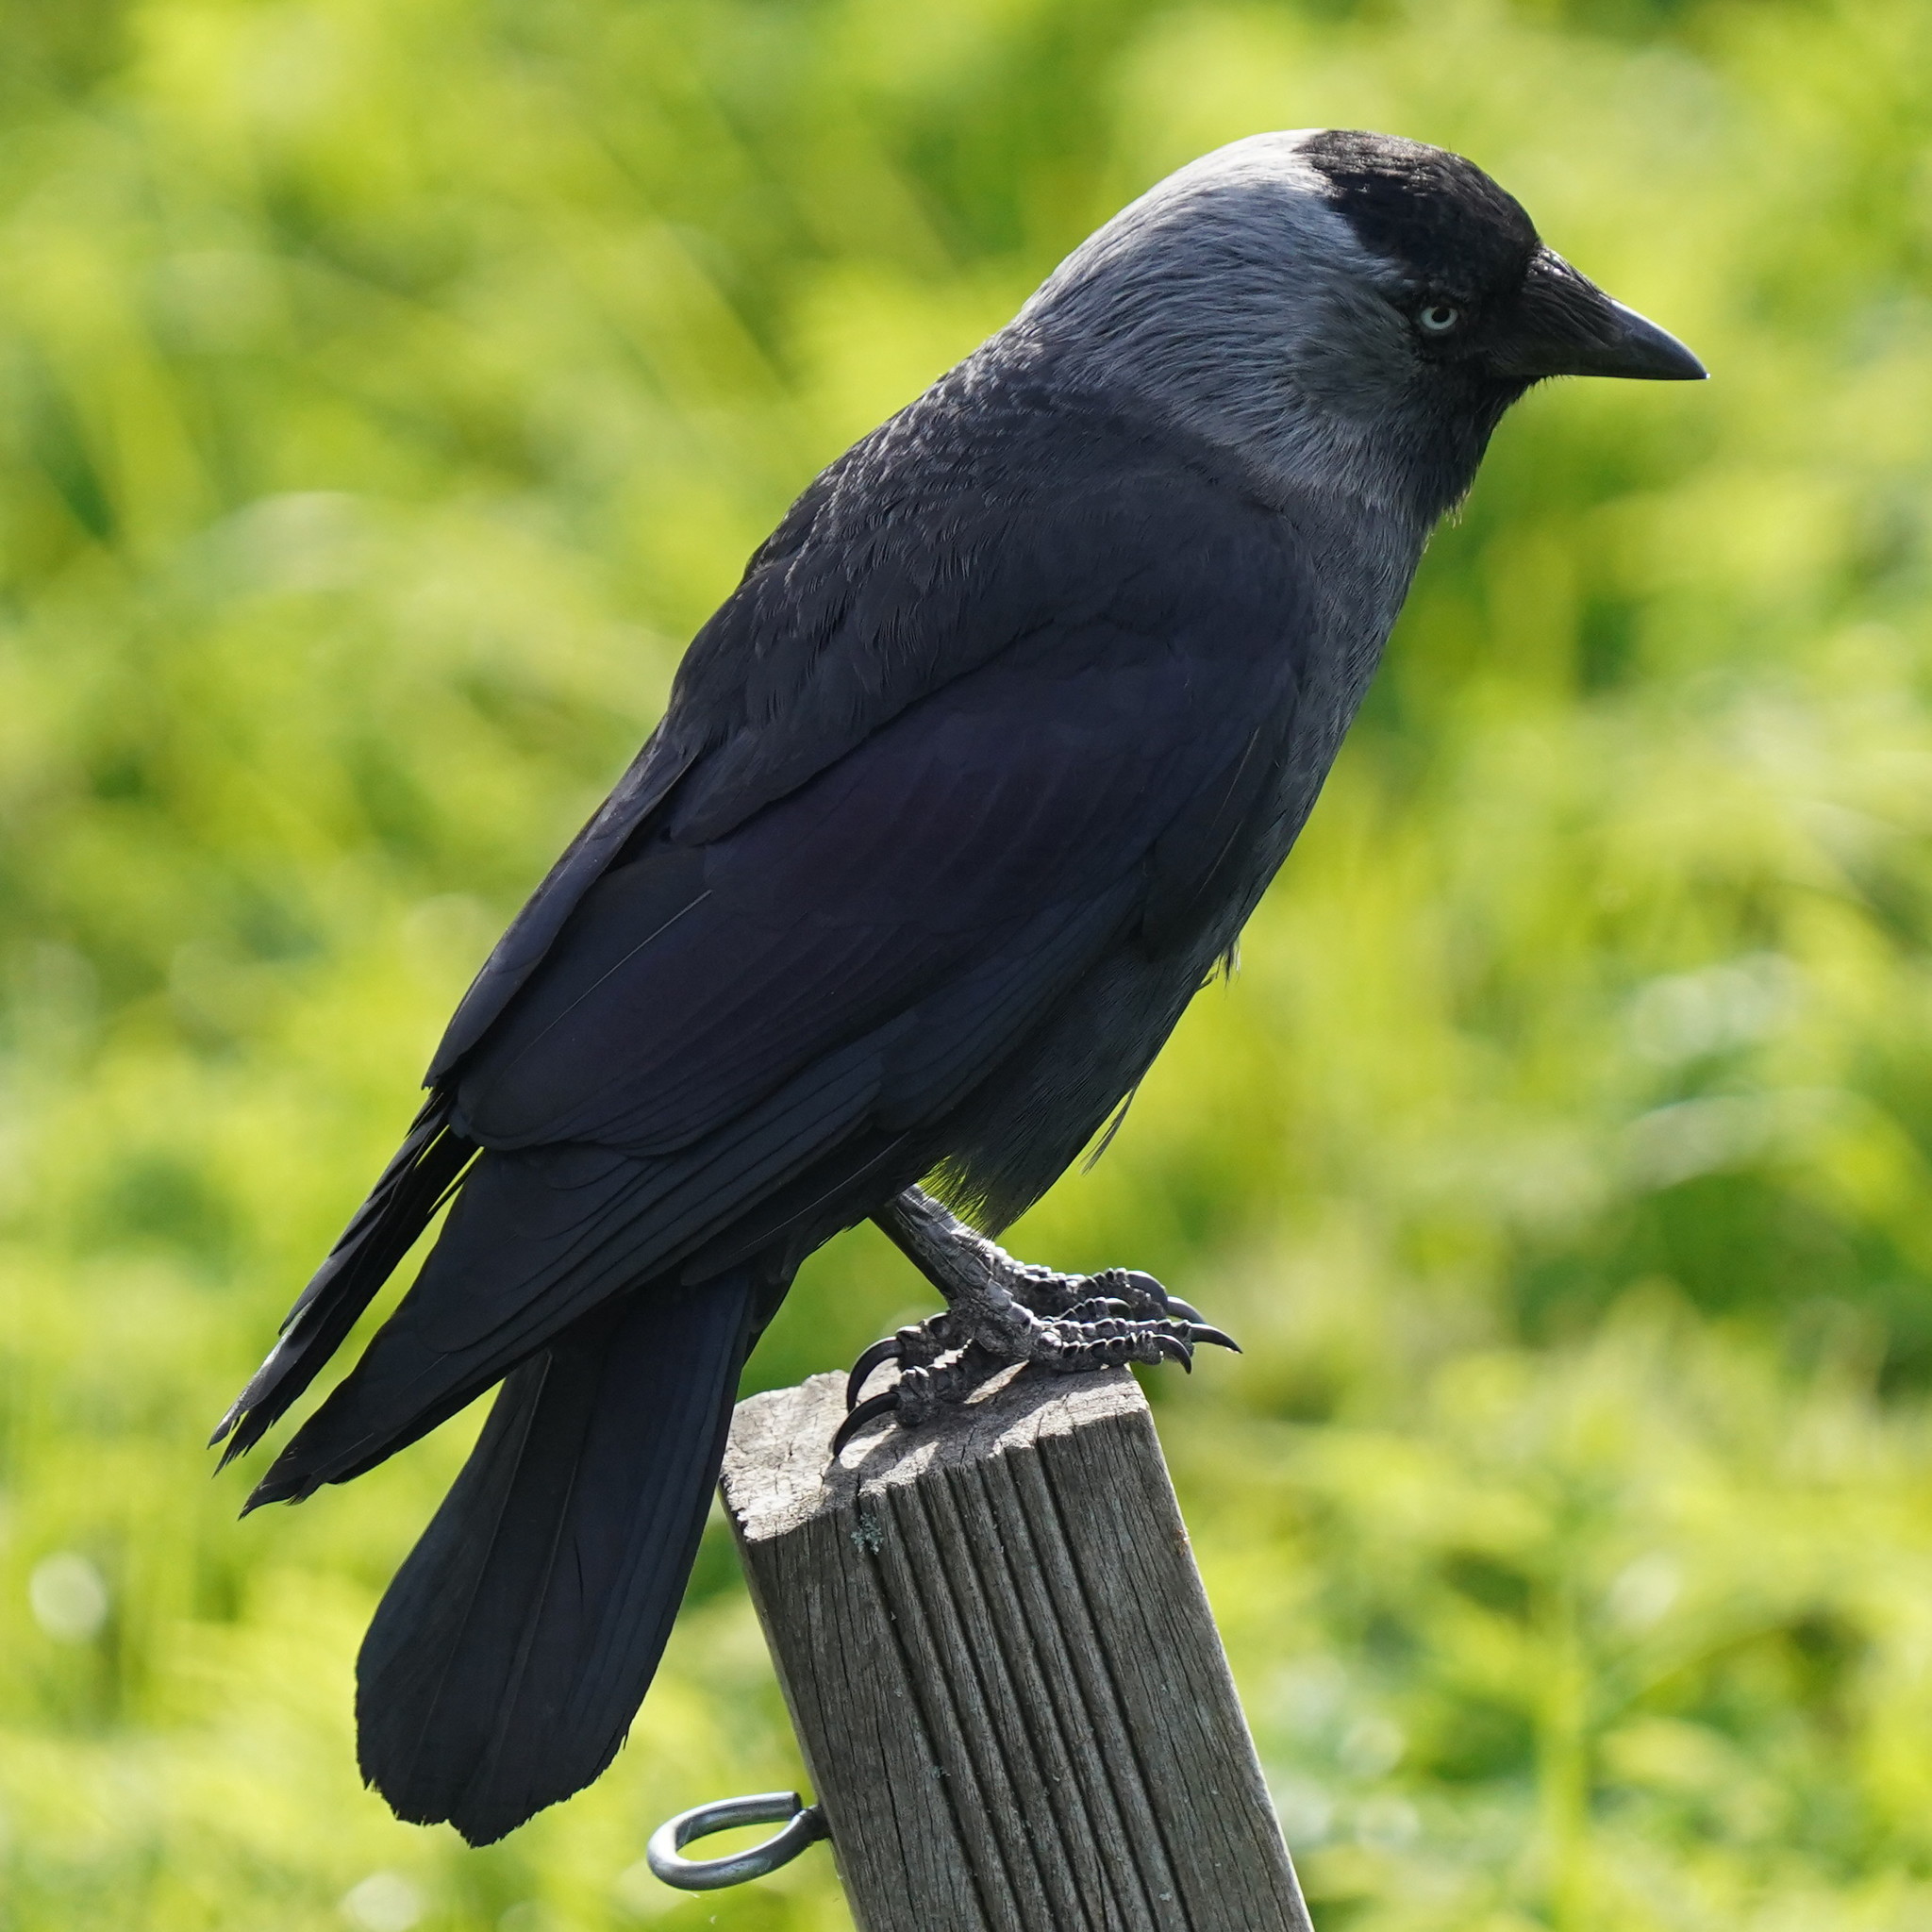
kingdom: Animalia
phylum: Chordata
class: Aves
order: Passeriformes
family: Corvidae
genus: Coloeus
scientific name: Coloeus monedula
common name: Western jackdaw
